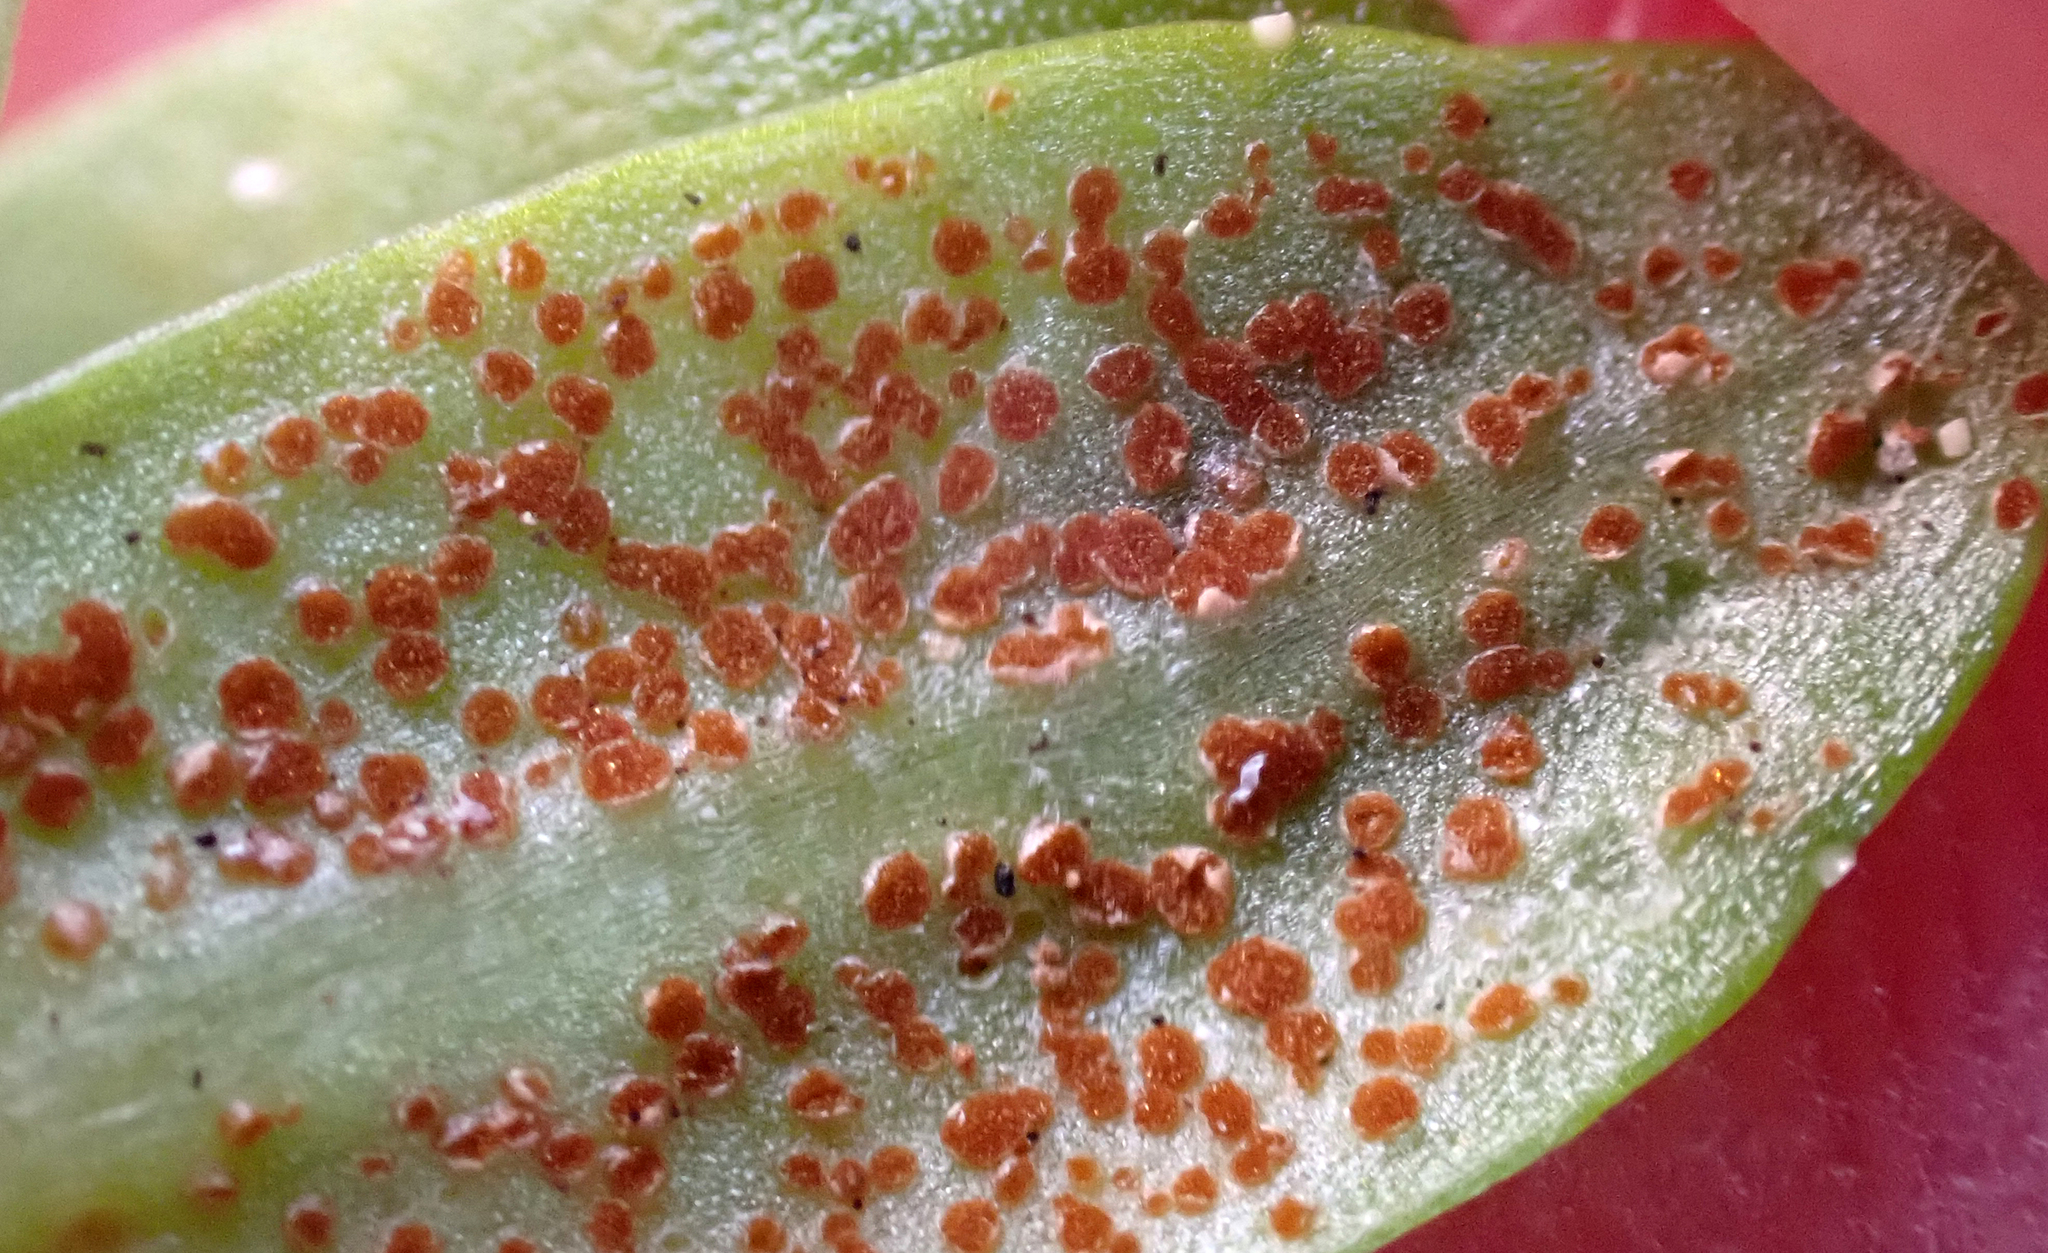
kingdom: Fungi
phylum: Basidiomycota
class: Pucciniomycetes
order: Pucciniales
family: Pucciniaceae
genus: Puccinia
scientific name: Puccinia aucta
